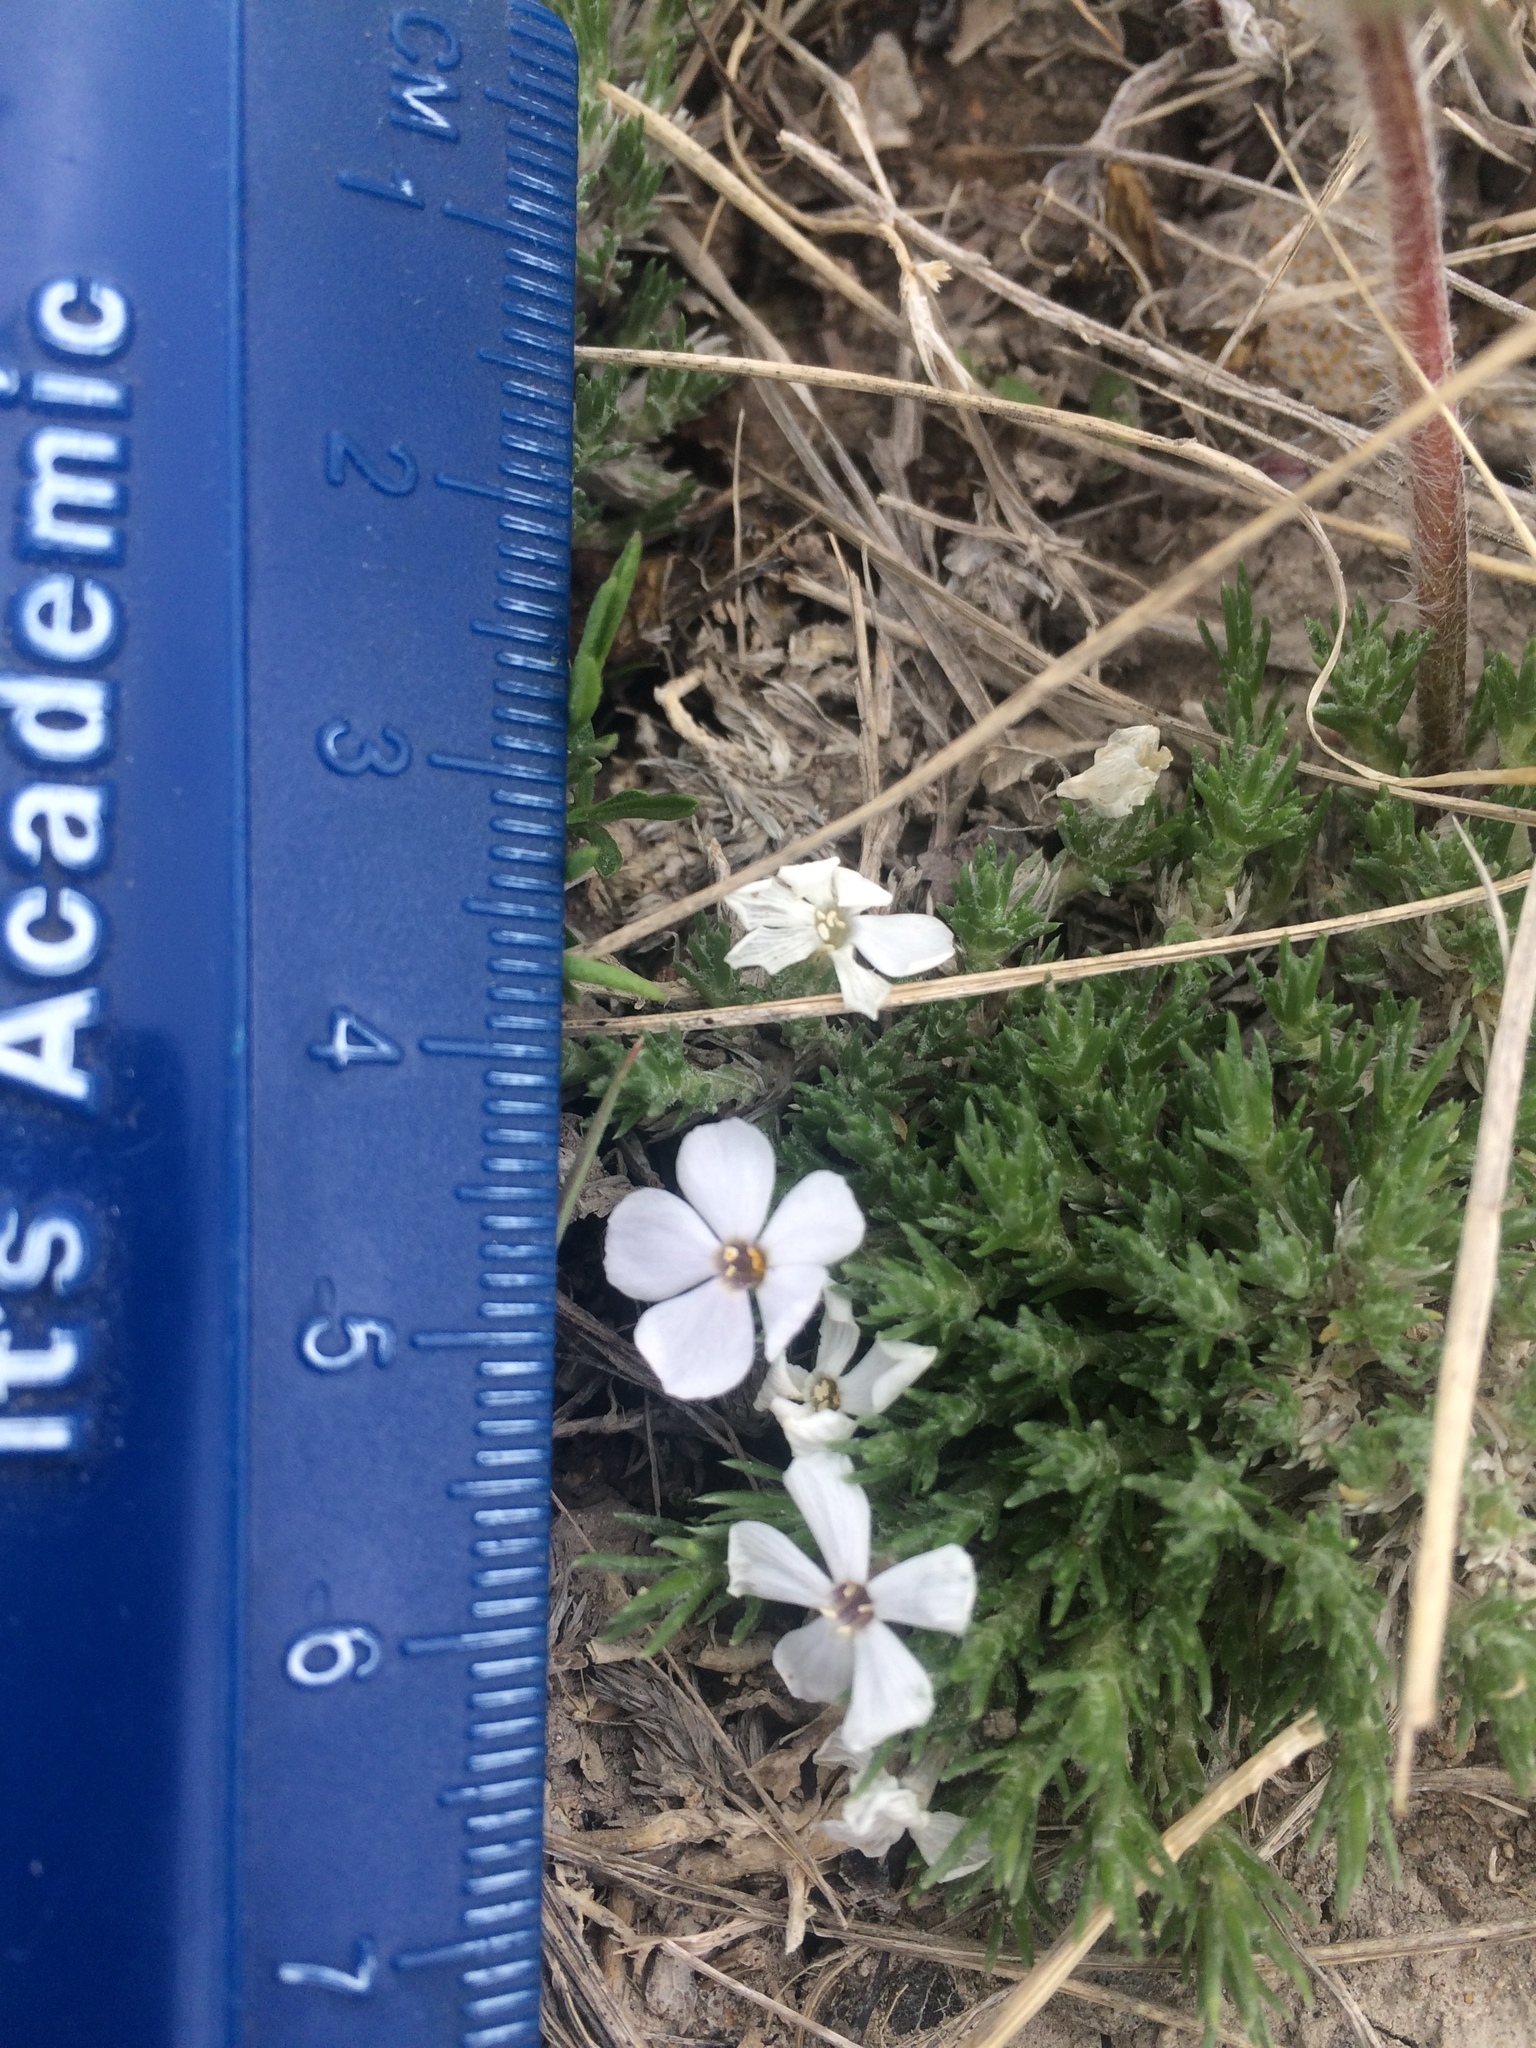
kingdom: Plantae
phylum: Tracheophyta
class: Magnoliopsida
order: Ericales
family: Polemoniaceae
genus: Phlox
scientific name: Phlox hoodii
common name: Moss phlox
